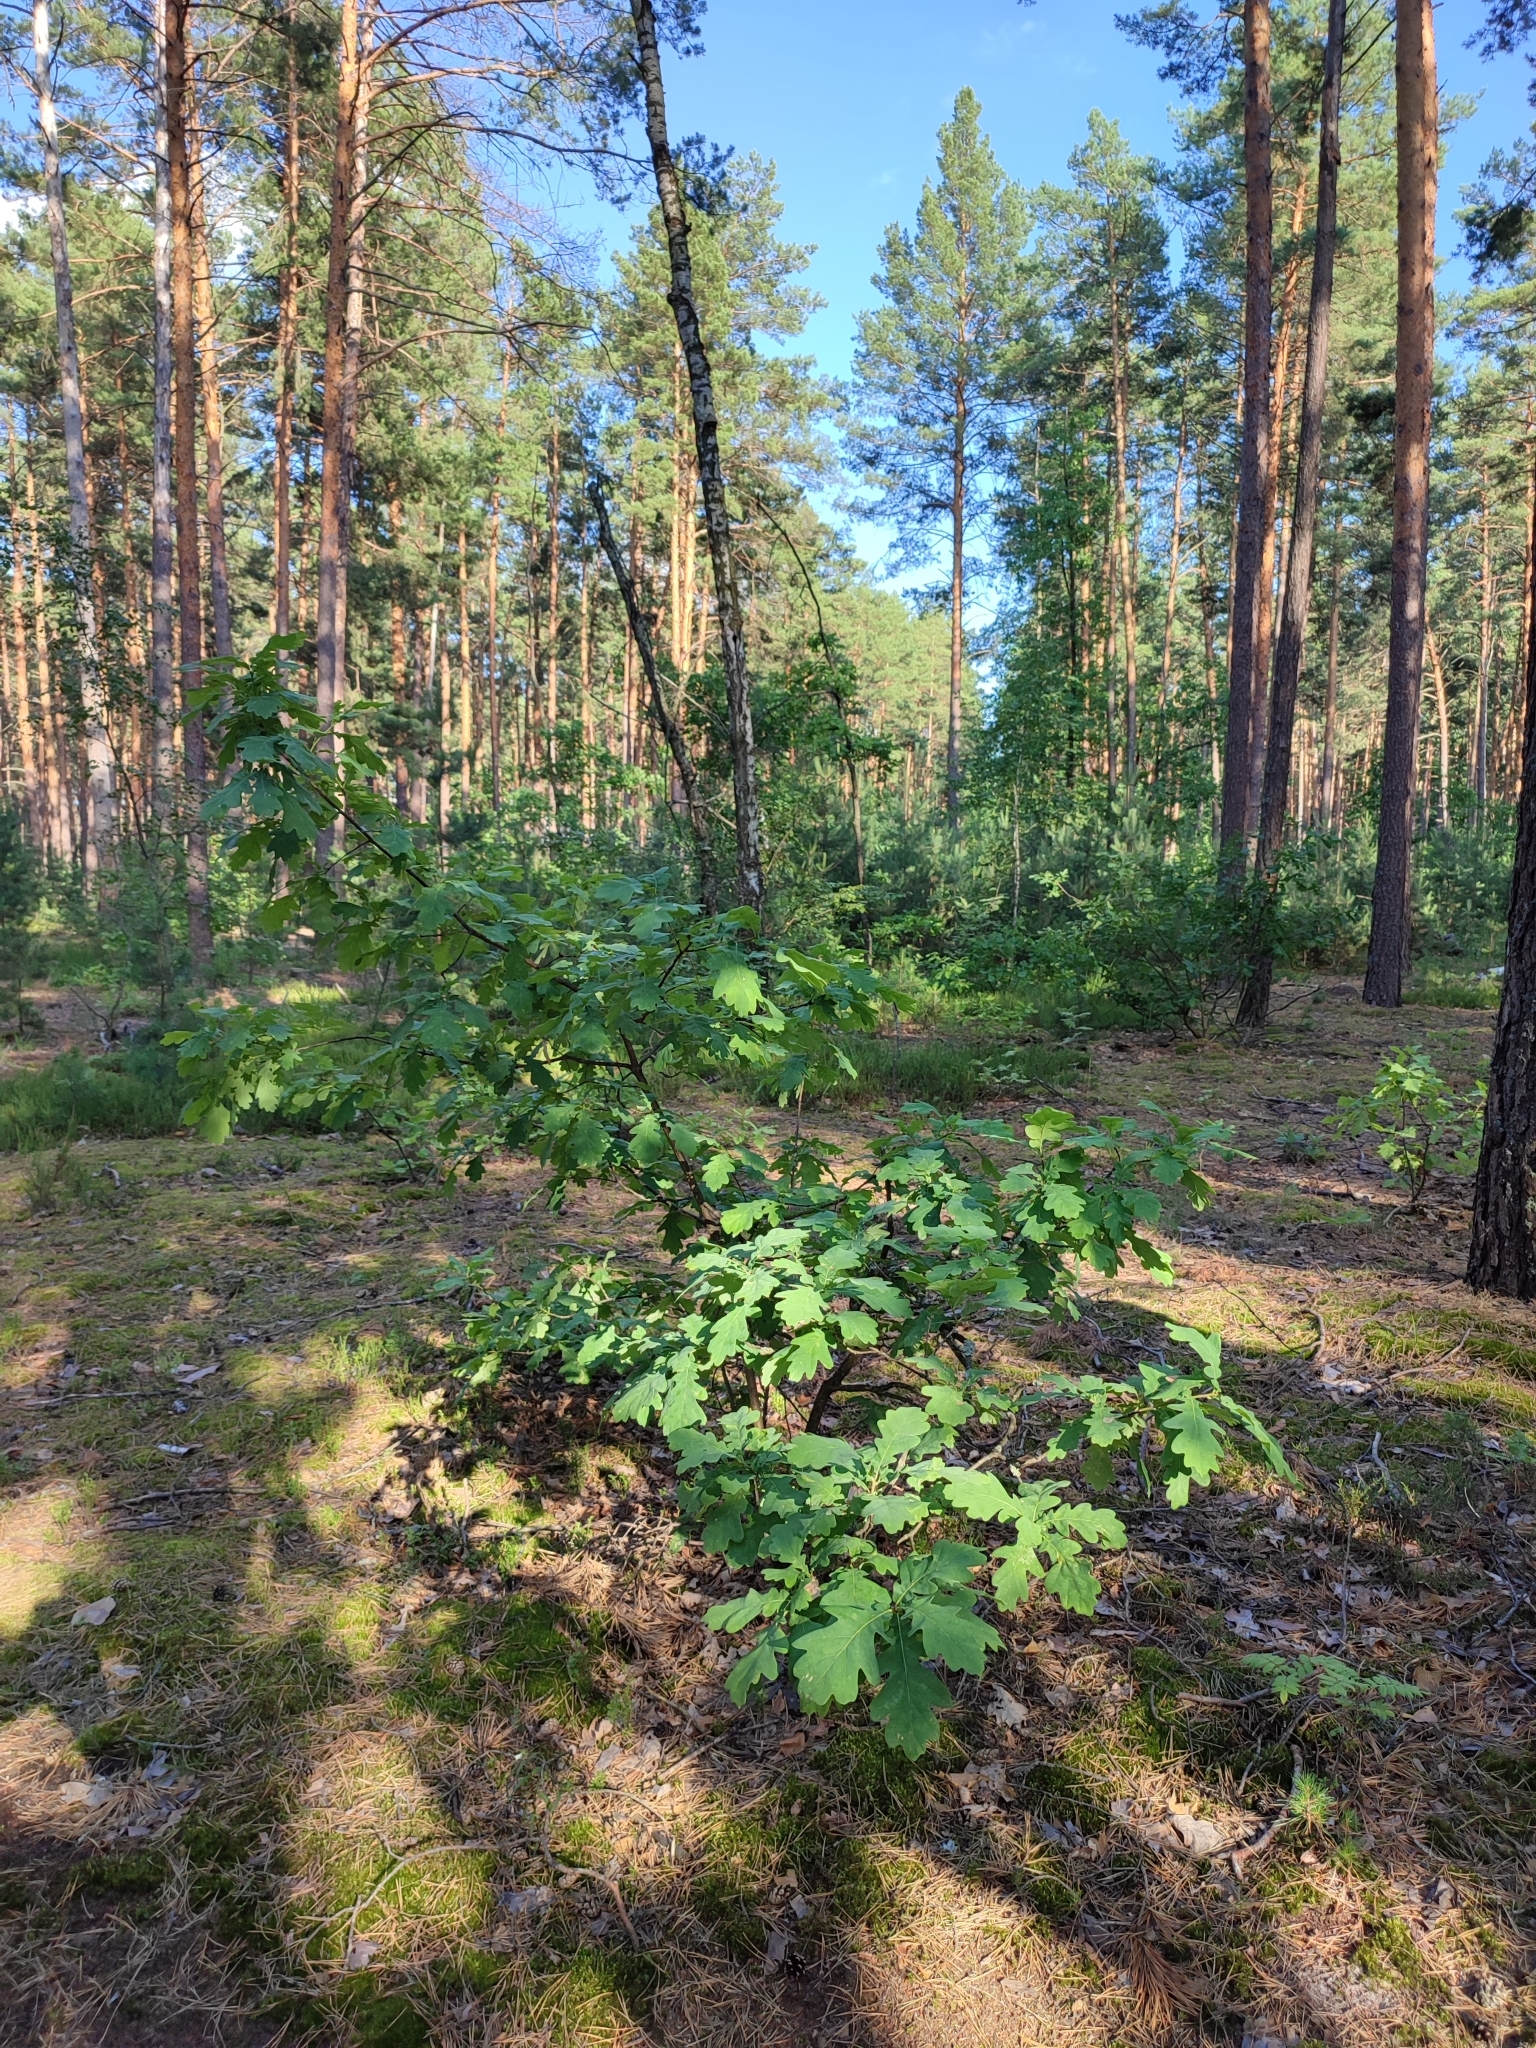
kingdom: Plantae
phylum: Tracheophyta
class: Magnoliopsida
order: Fagales
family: Fagaceae
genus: Quercus
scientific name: Quercus robur
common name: Pedunculate oak
